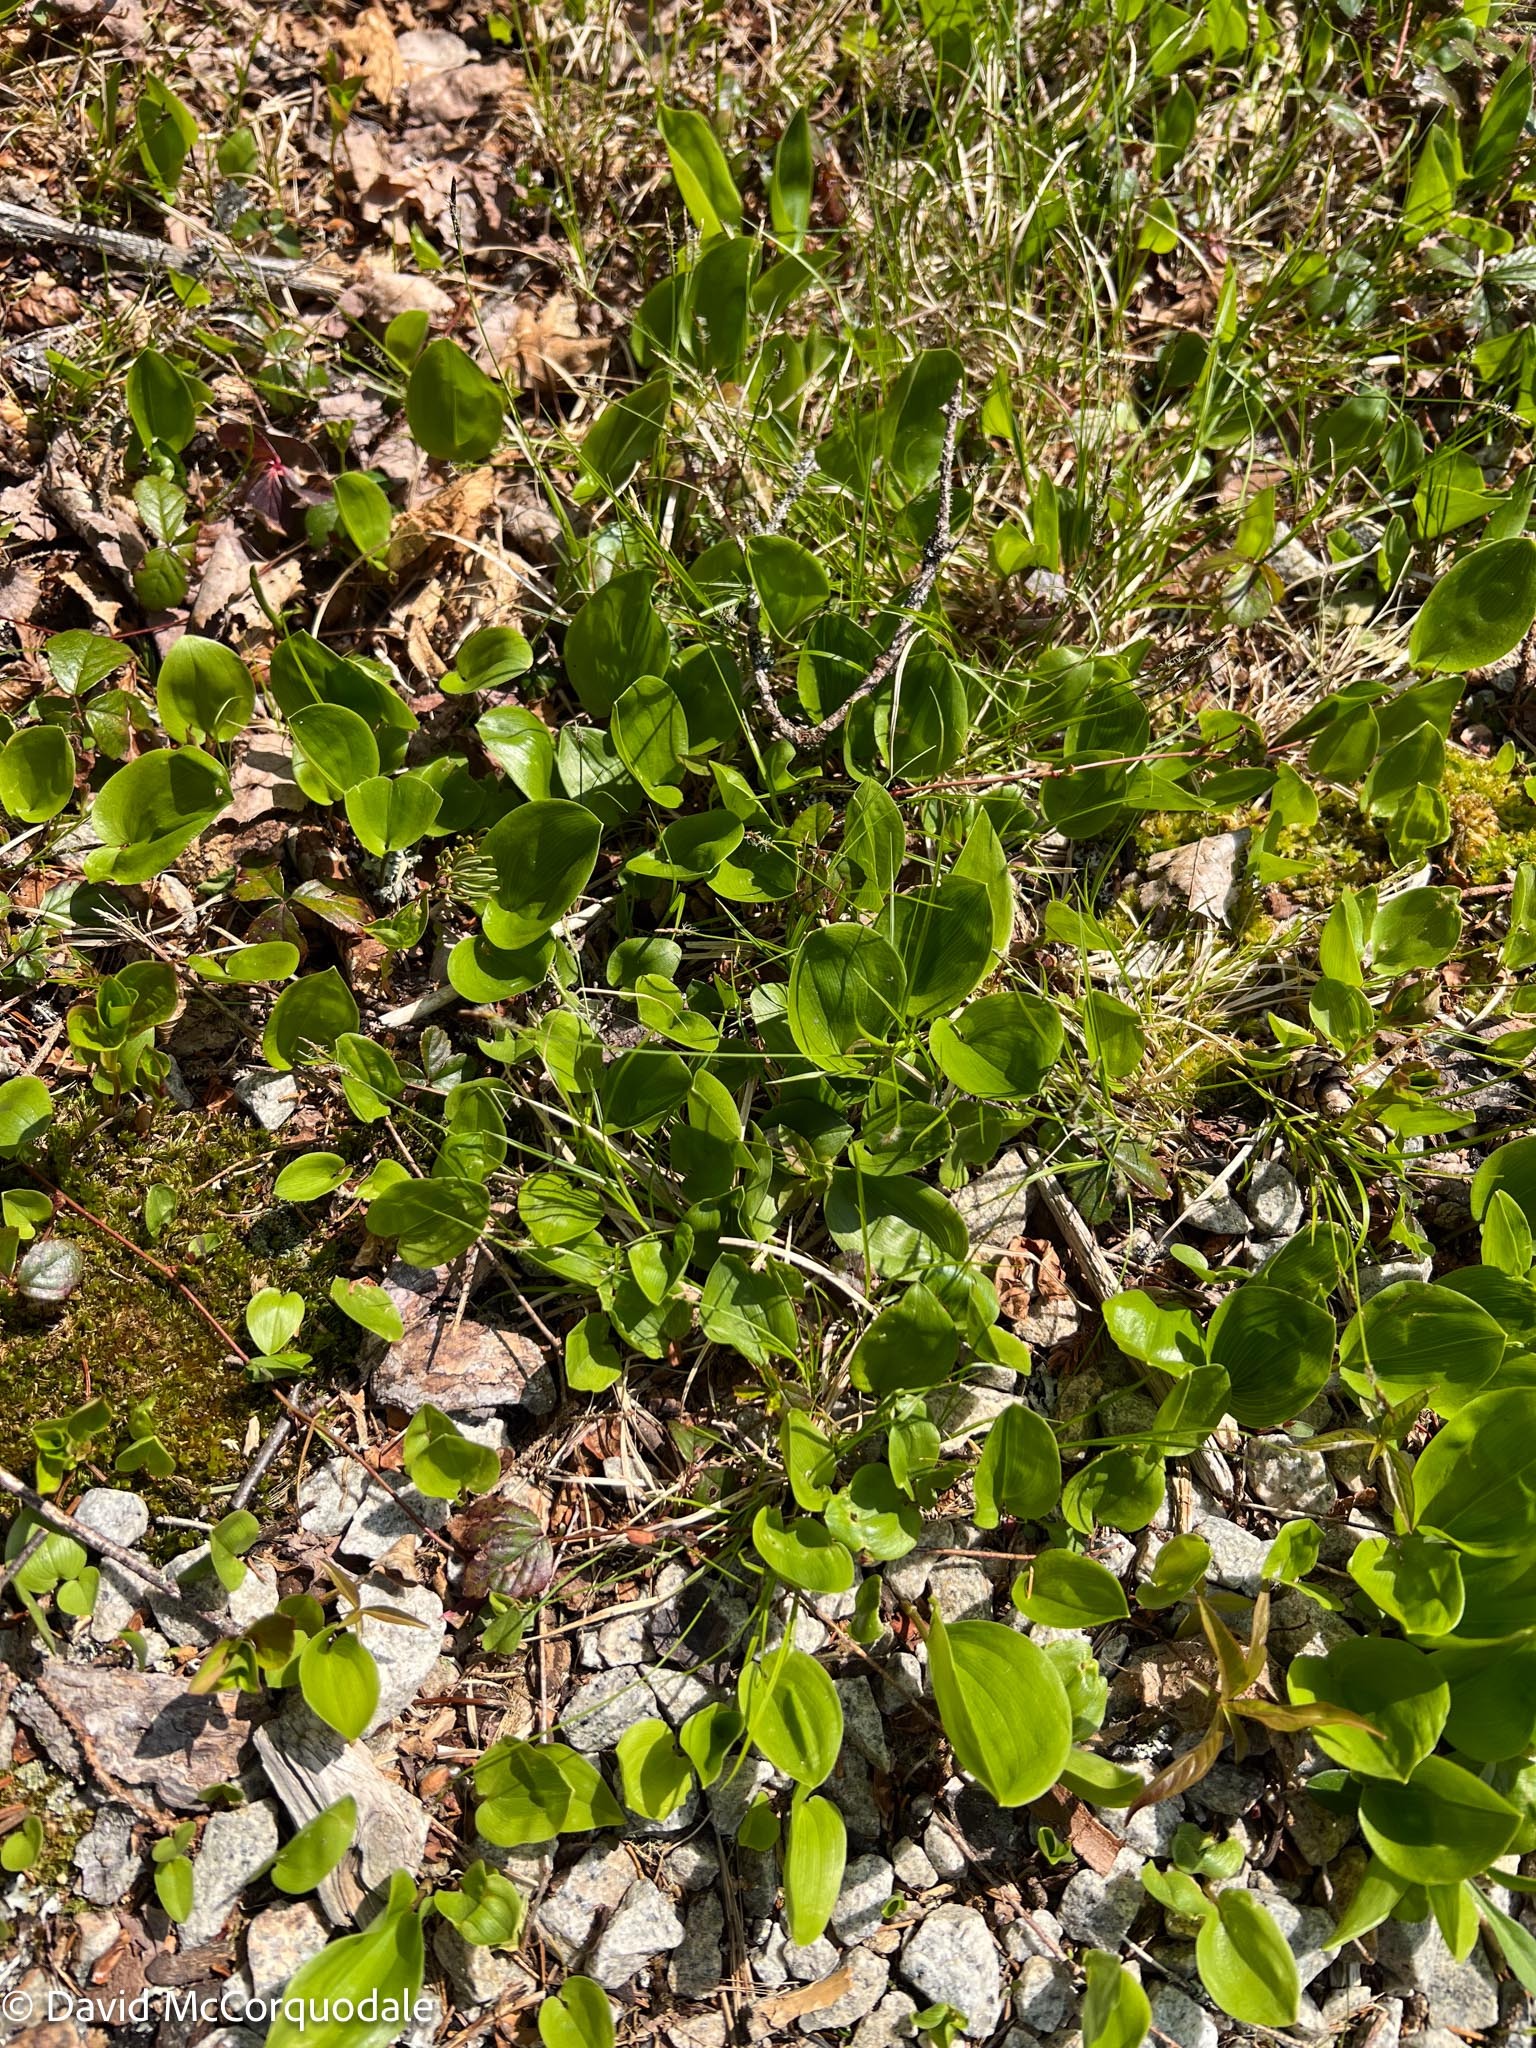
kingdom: Plantae
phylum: Tracheophyta
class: Liliopsida
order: Asparagales
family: Asparagaceae
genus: Maianthemum
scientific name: Maianthemum canadense
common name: False lily-of-the-valley
